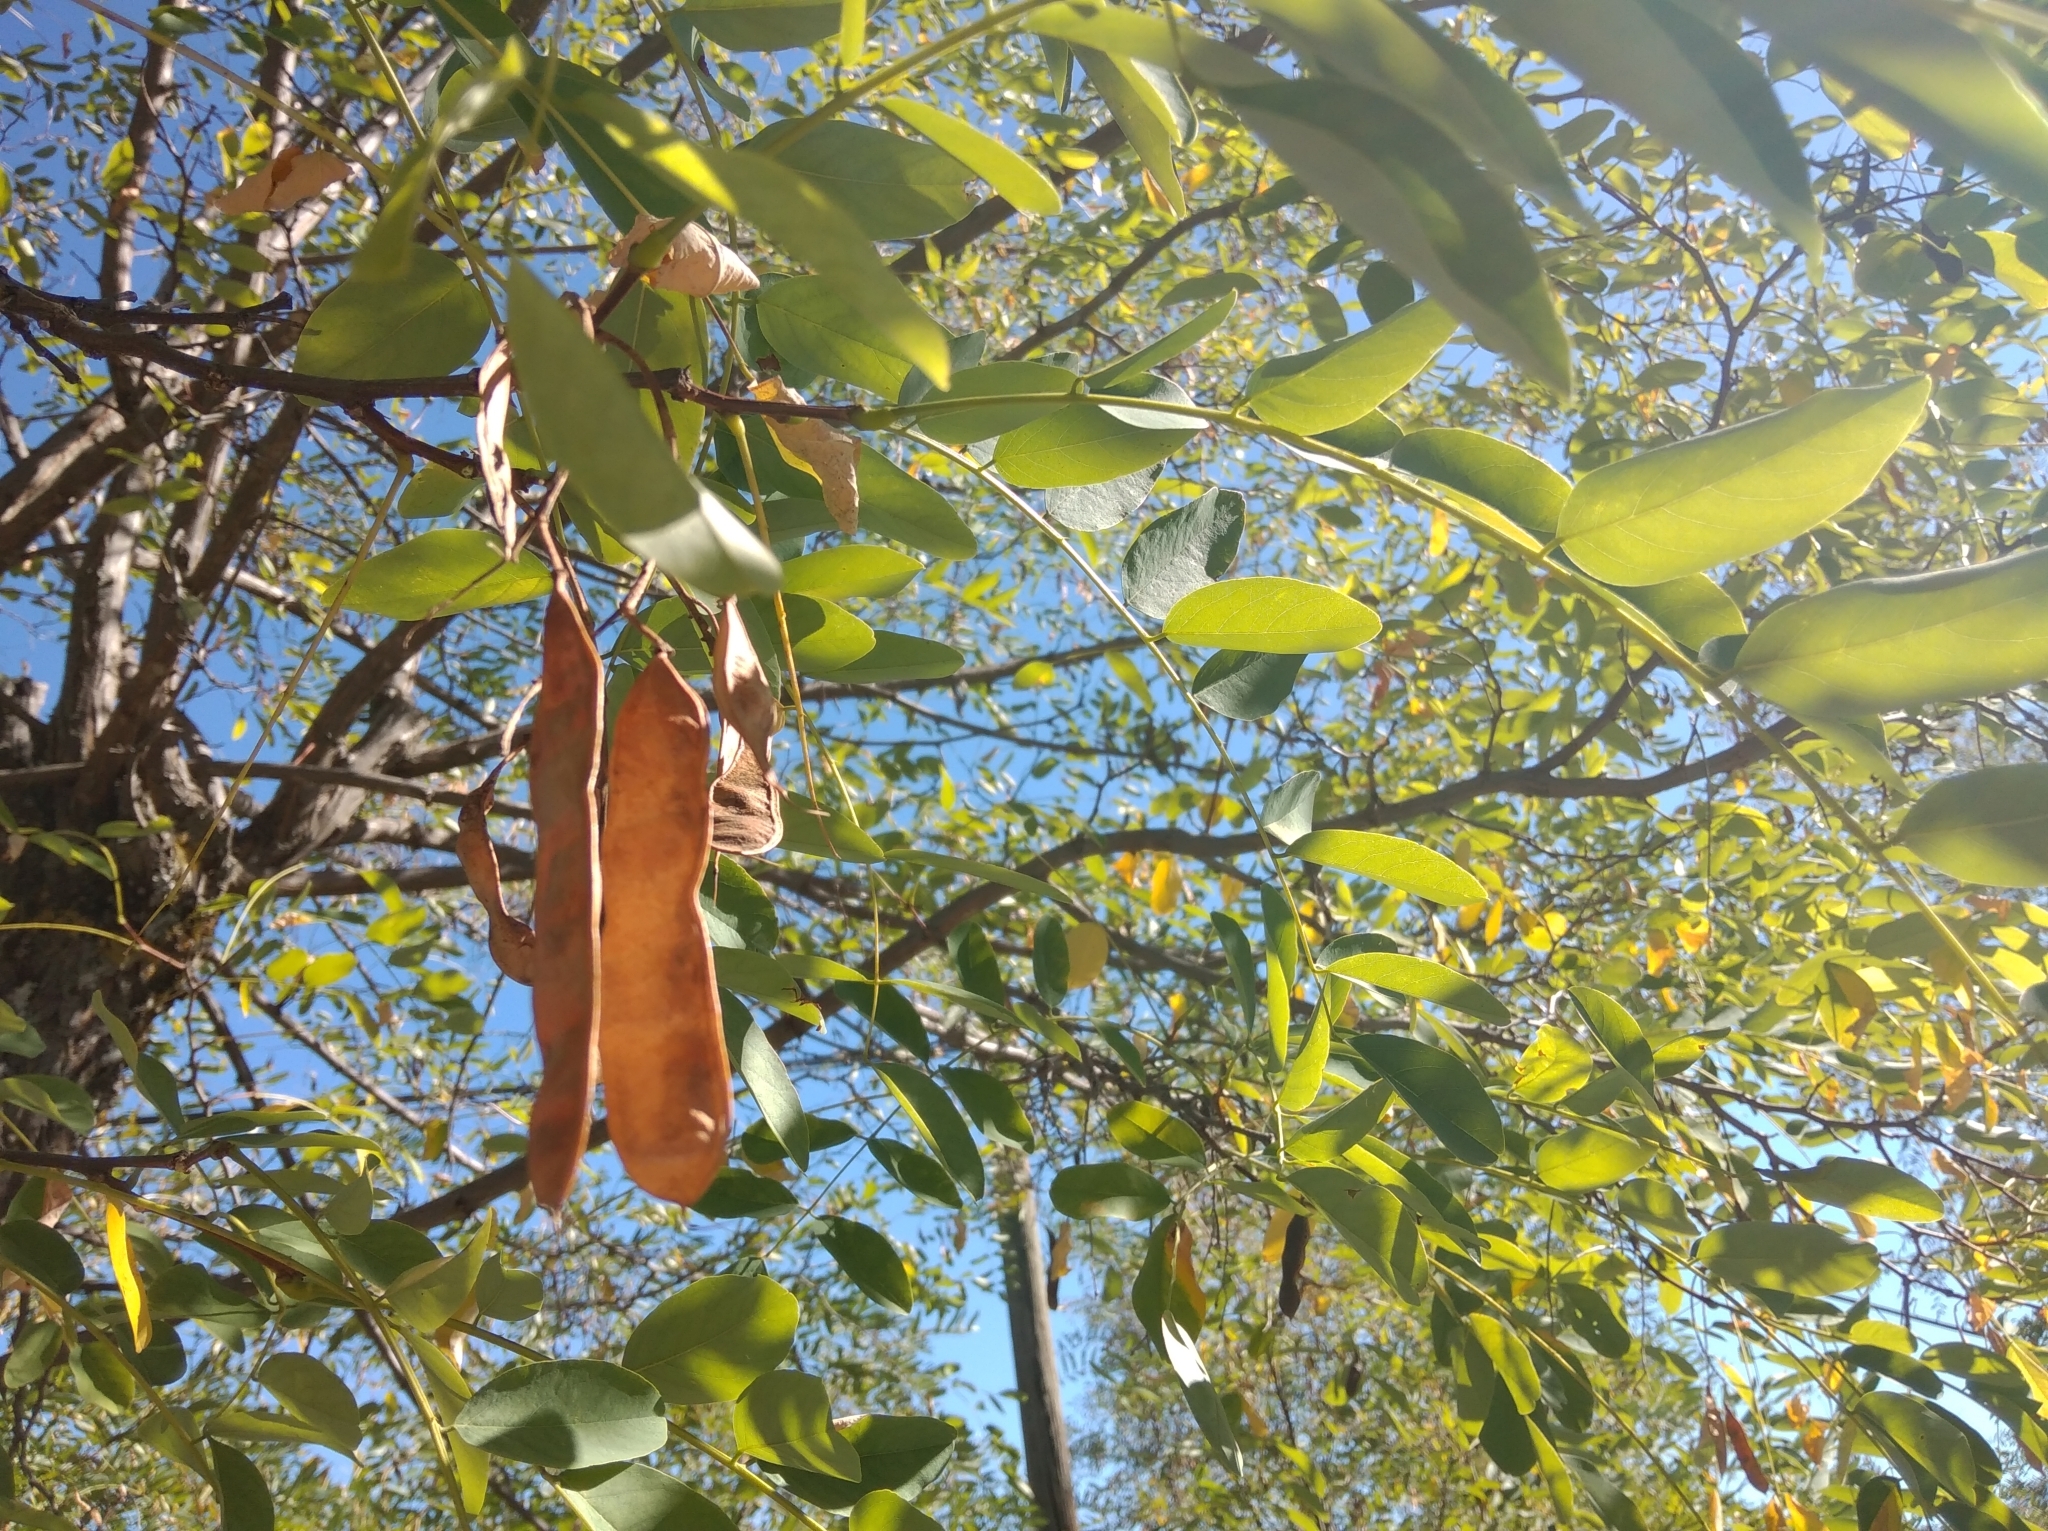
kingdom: Plantae
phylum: Tracheophyta
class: Magnoliopsida
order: Fabales
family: Fabaceae
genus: Robinia
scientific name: Robinia pseudoacacia
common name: Black locust
